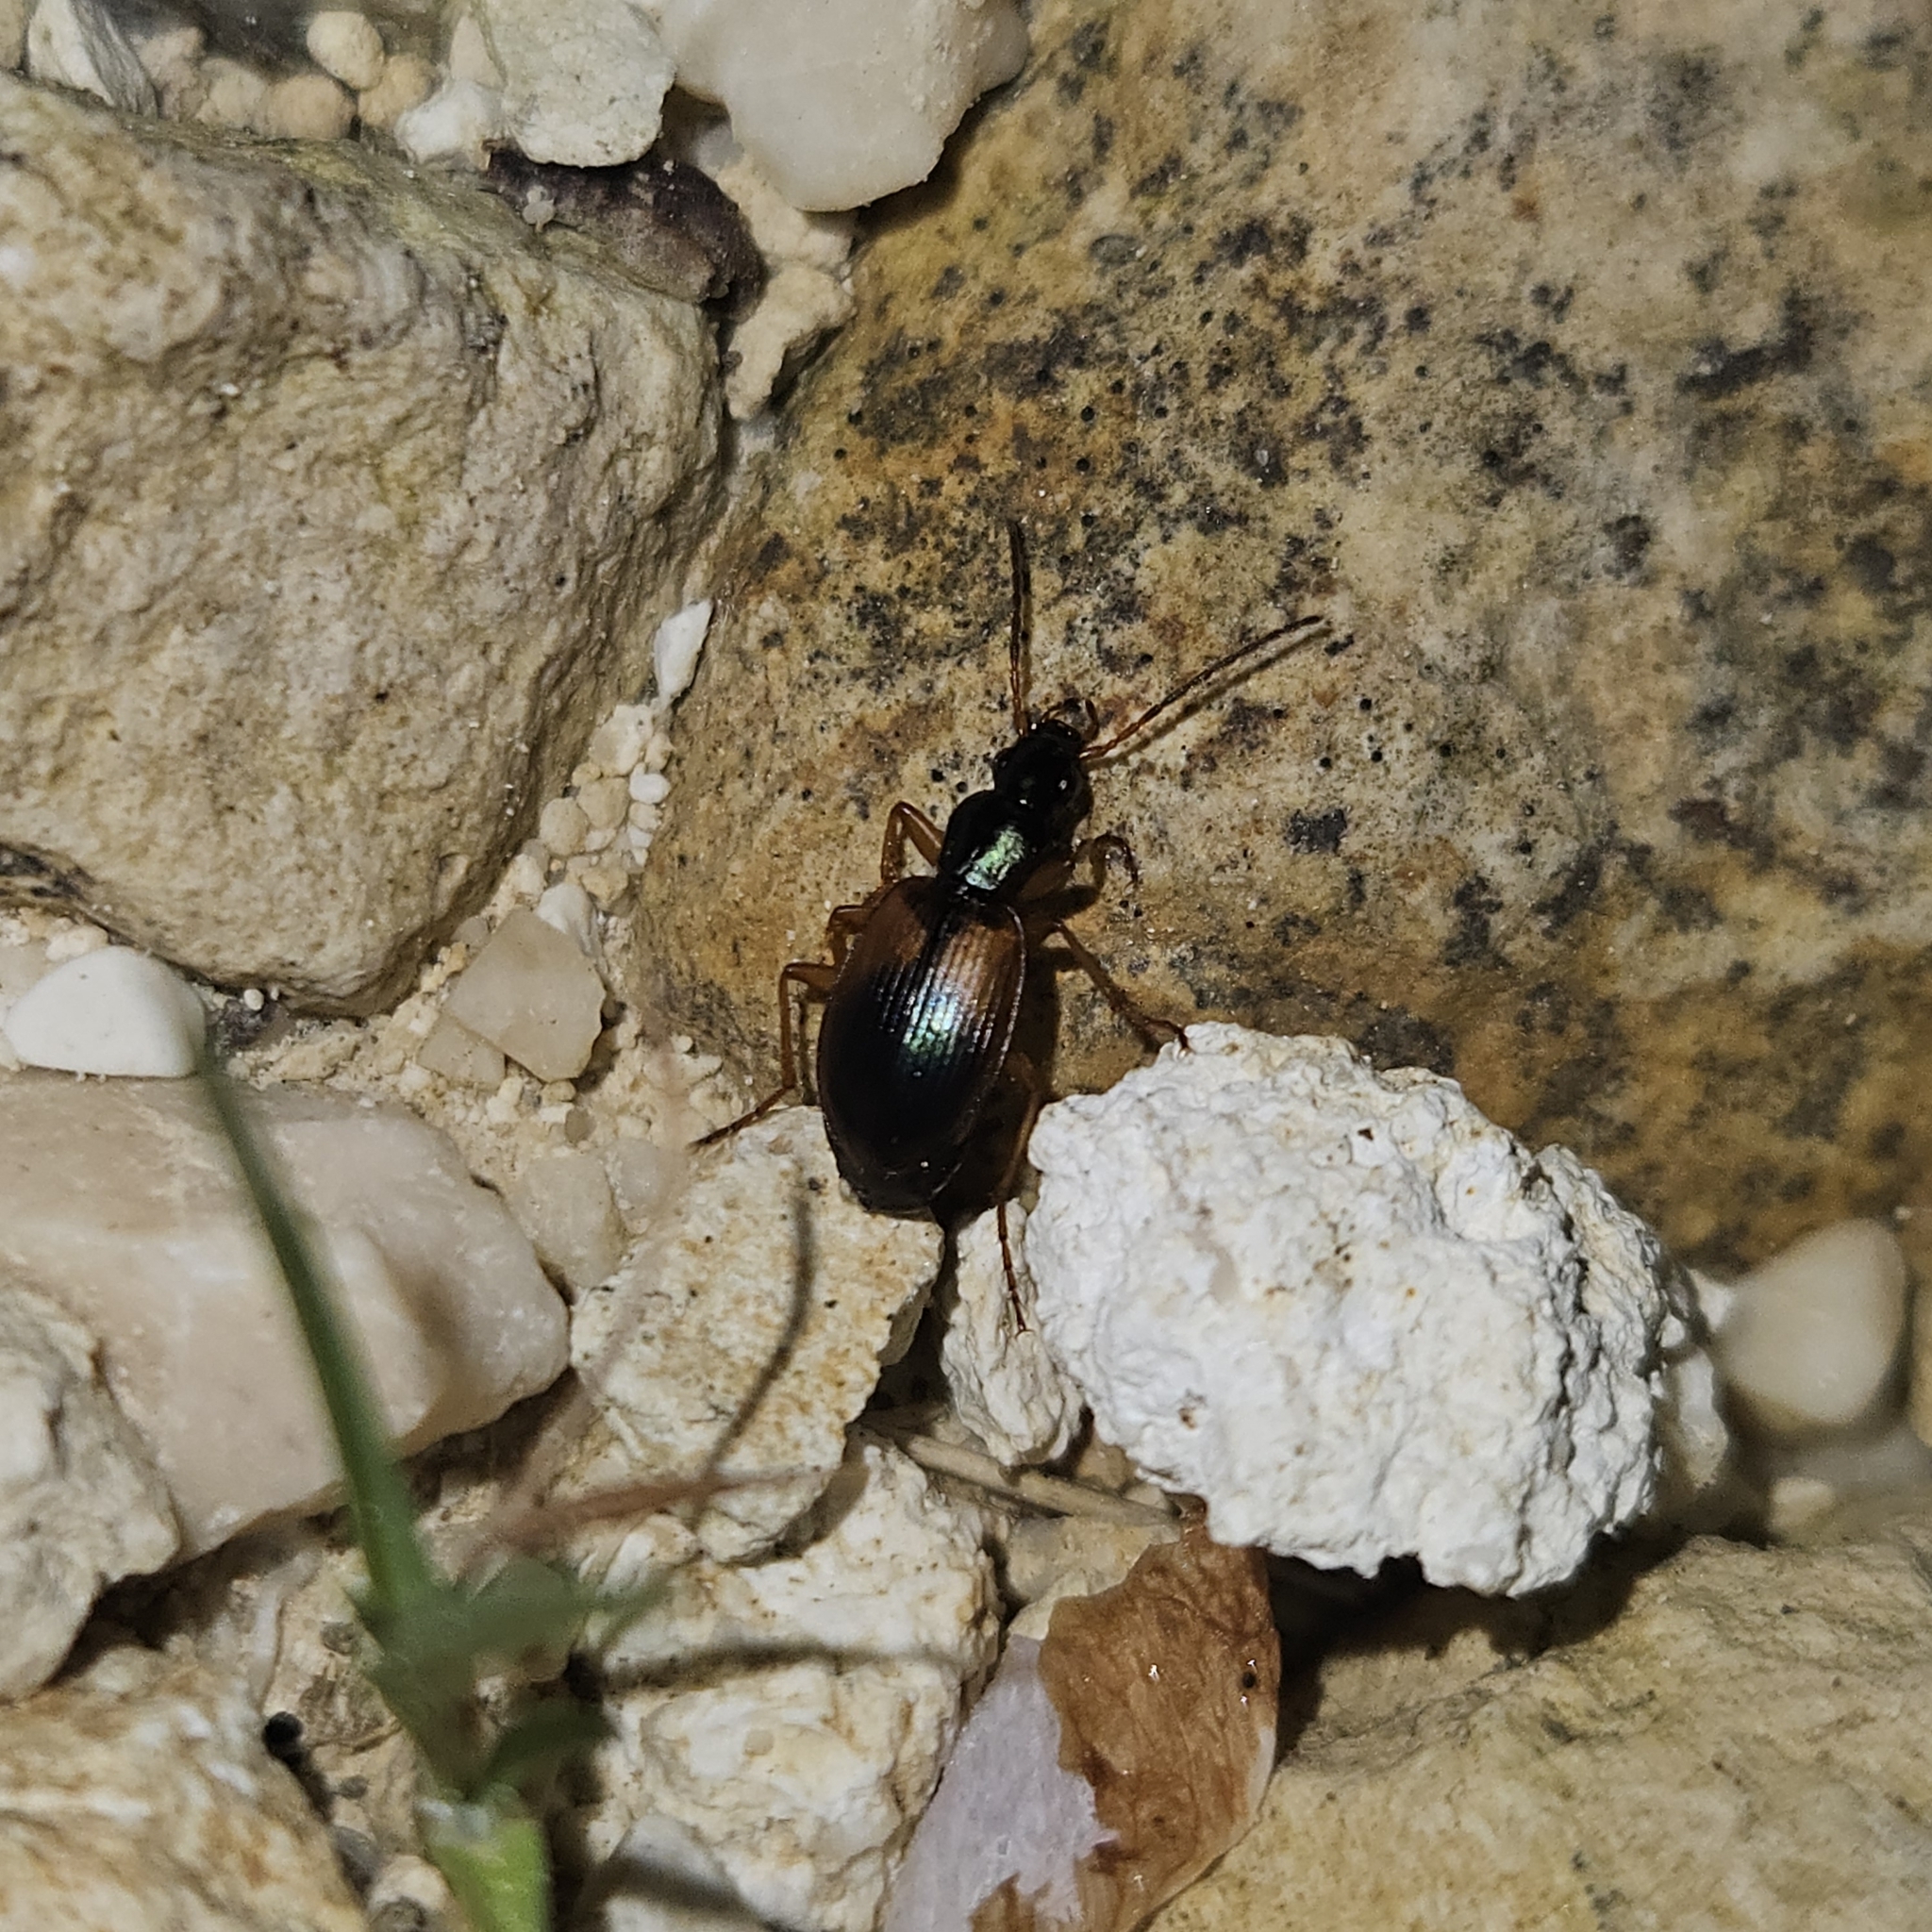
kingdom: Animalia
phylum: Arthropoda
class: Insecta
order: Coleoptera
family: Carabidae
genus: Anchomenus
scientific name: Anchomenus dorsalis
